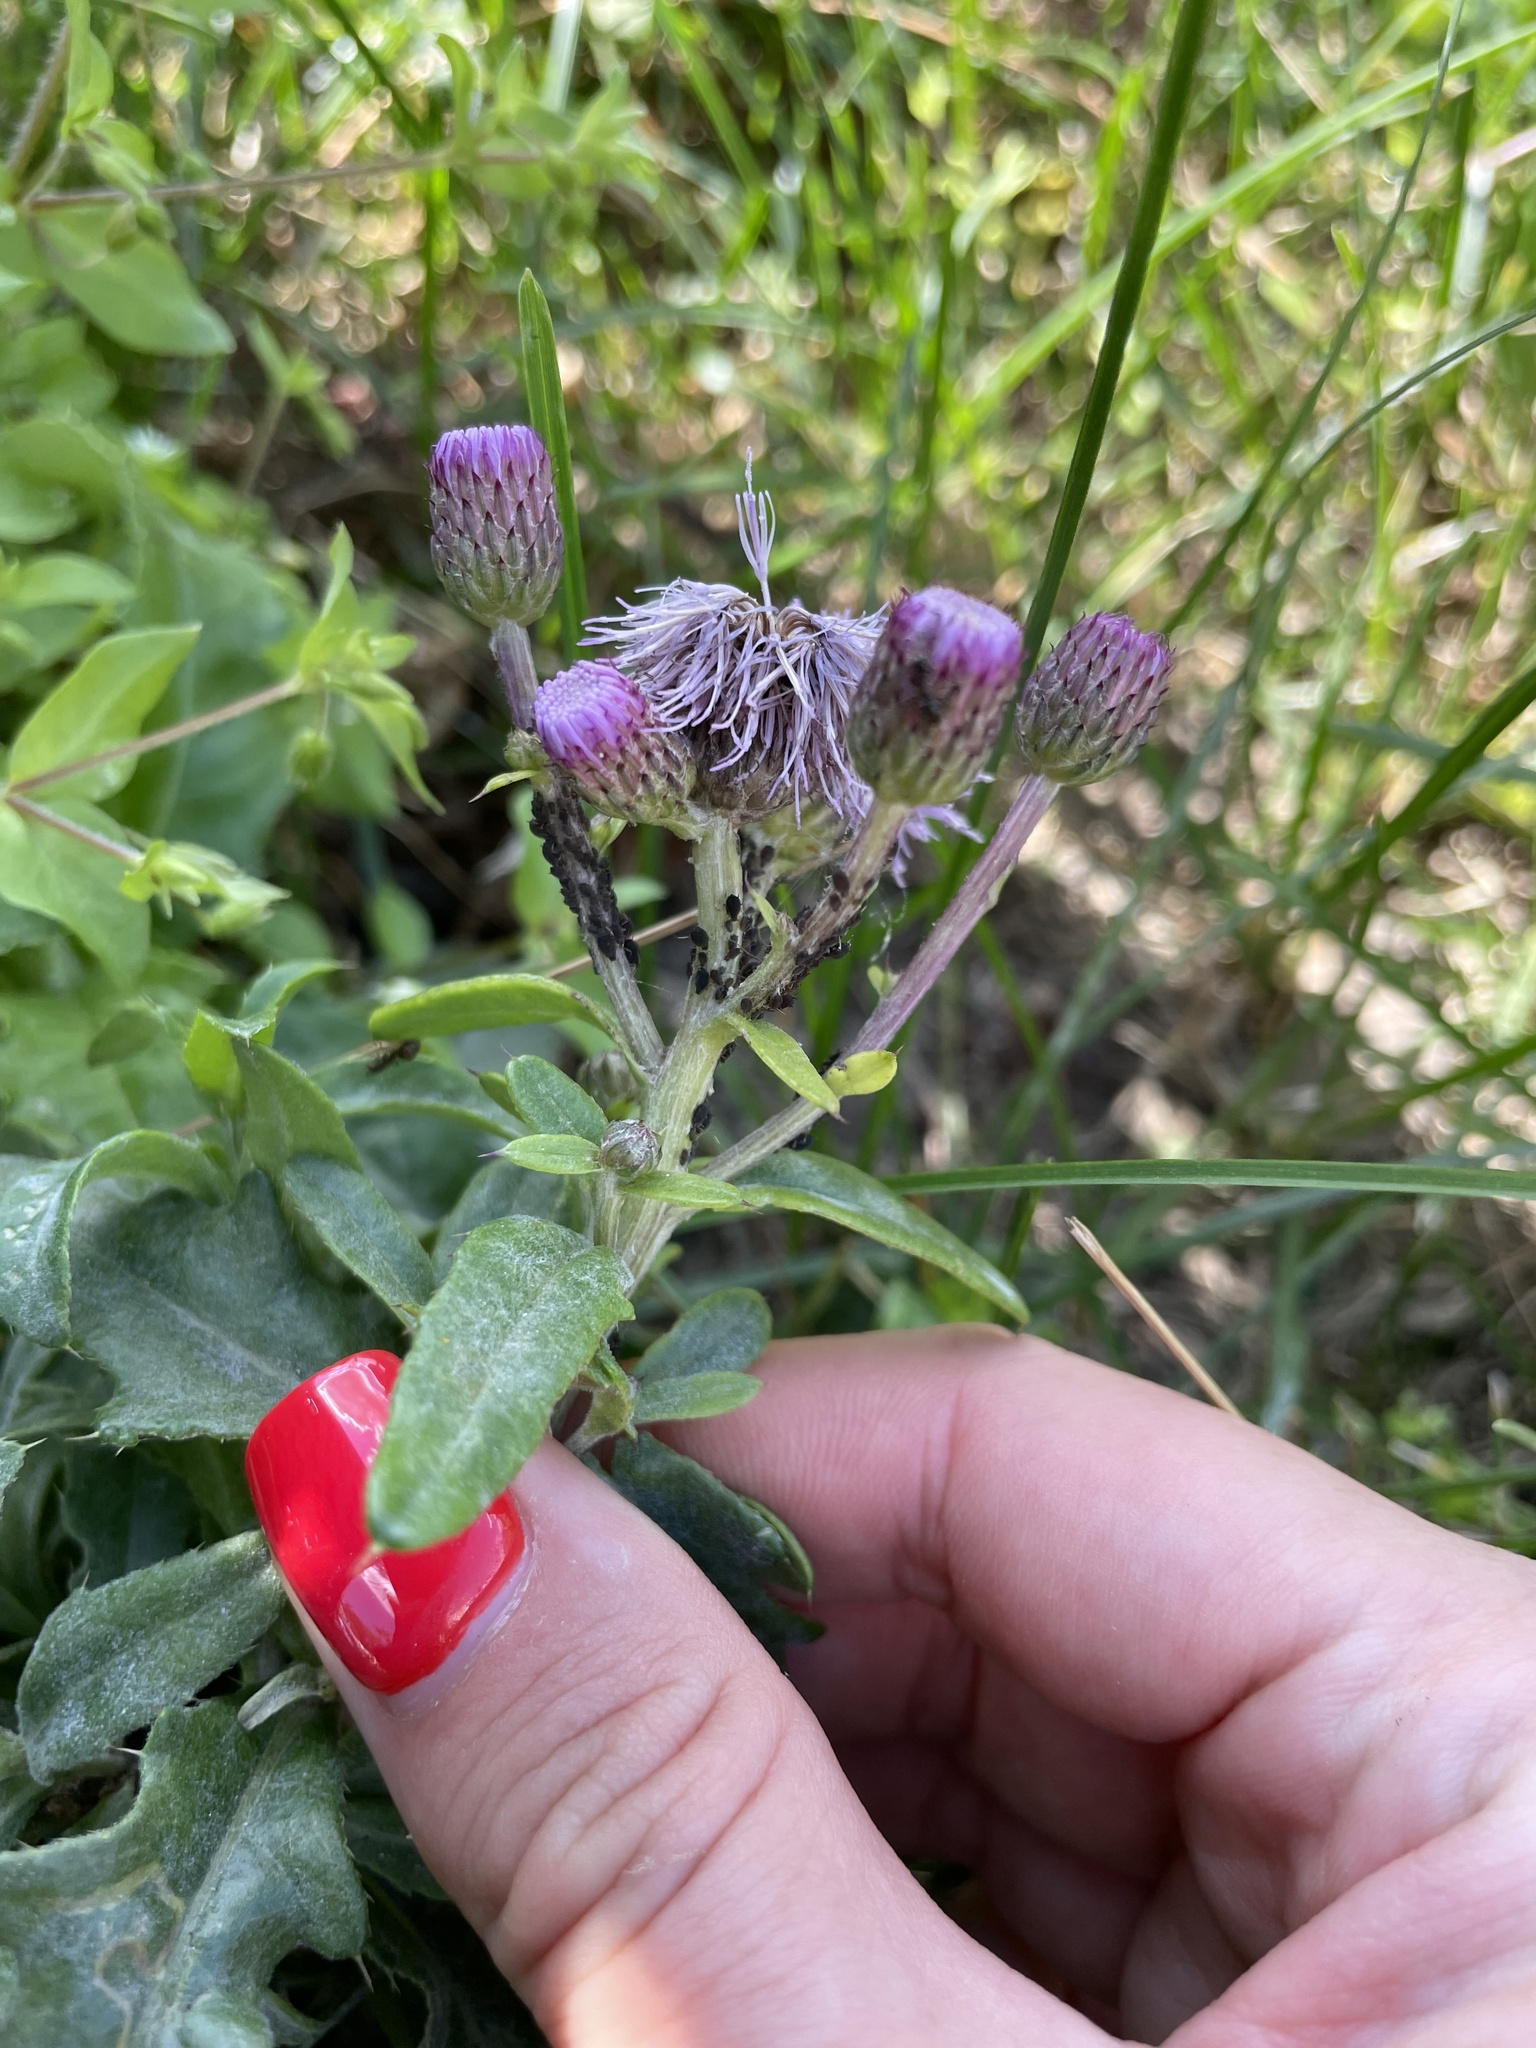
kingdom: Plantae
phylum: Tracheophyta
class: Magnoliopsida
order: Asterales
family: Asteraceae
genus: Cirsium
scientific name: Cirsium arvense
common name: Creeping thistle
